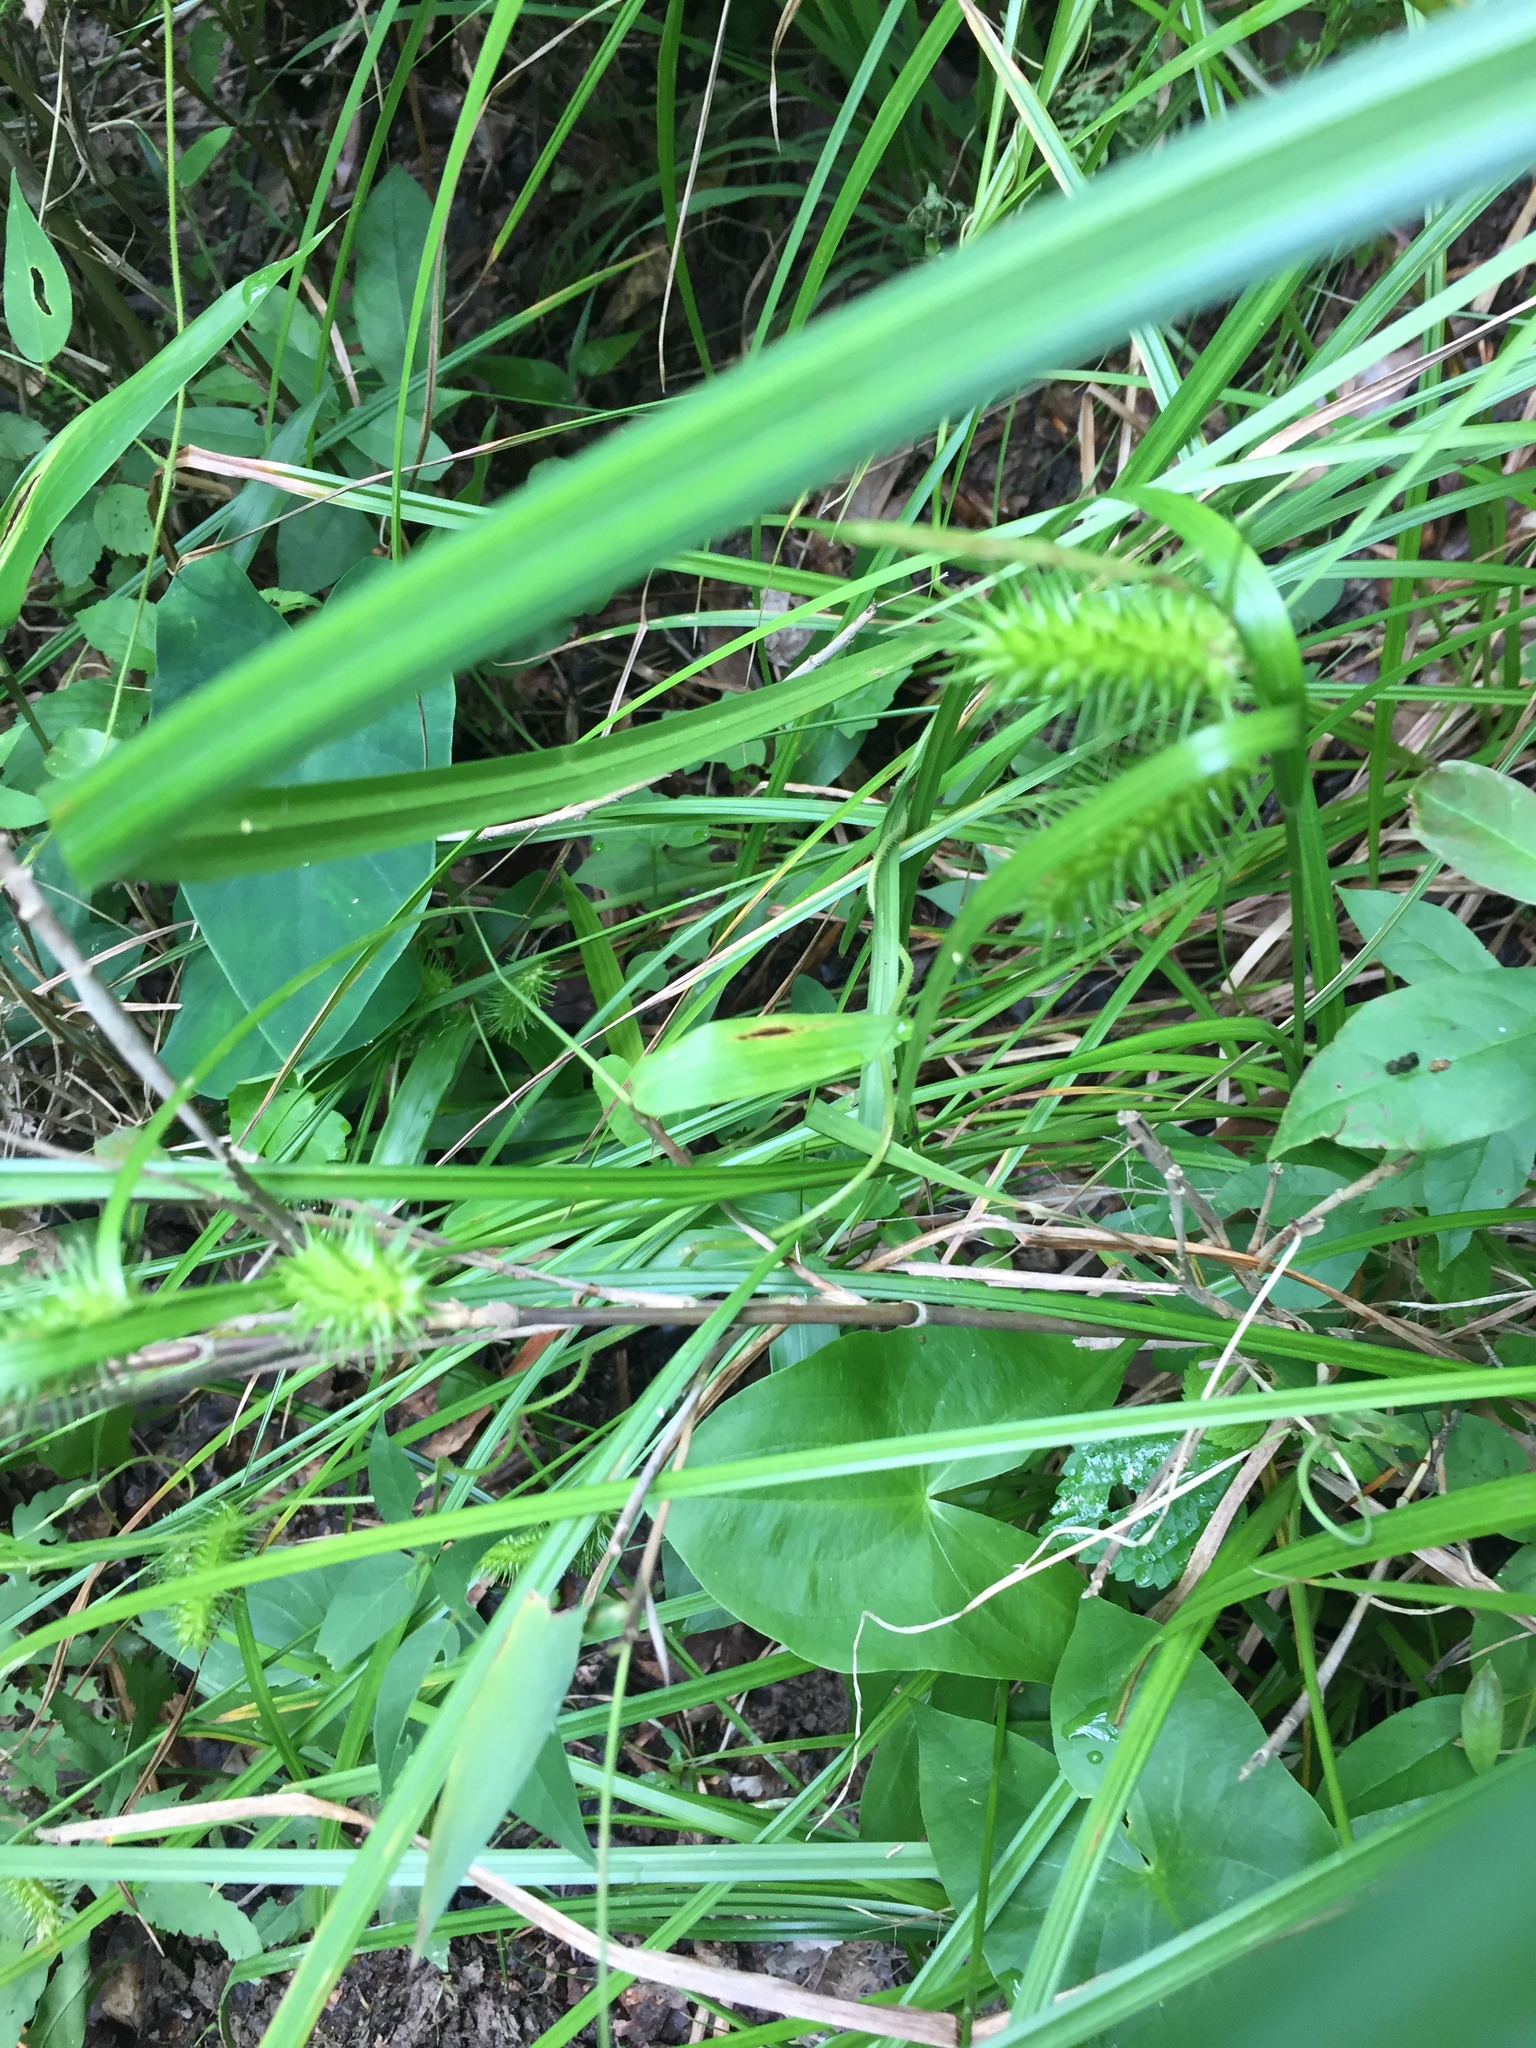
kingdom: Plantae
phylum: Tracheophyta
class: Liliopsida
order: Poales
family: Cyperaceae
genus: Carex
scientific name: Carex lurida
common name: Sallow sedge
